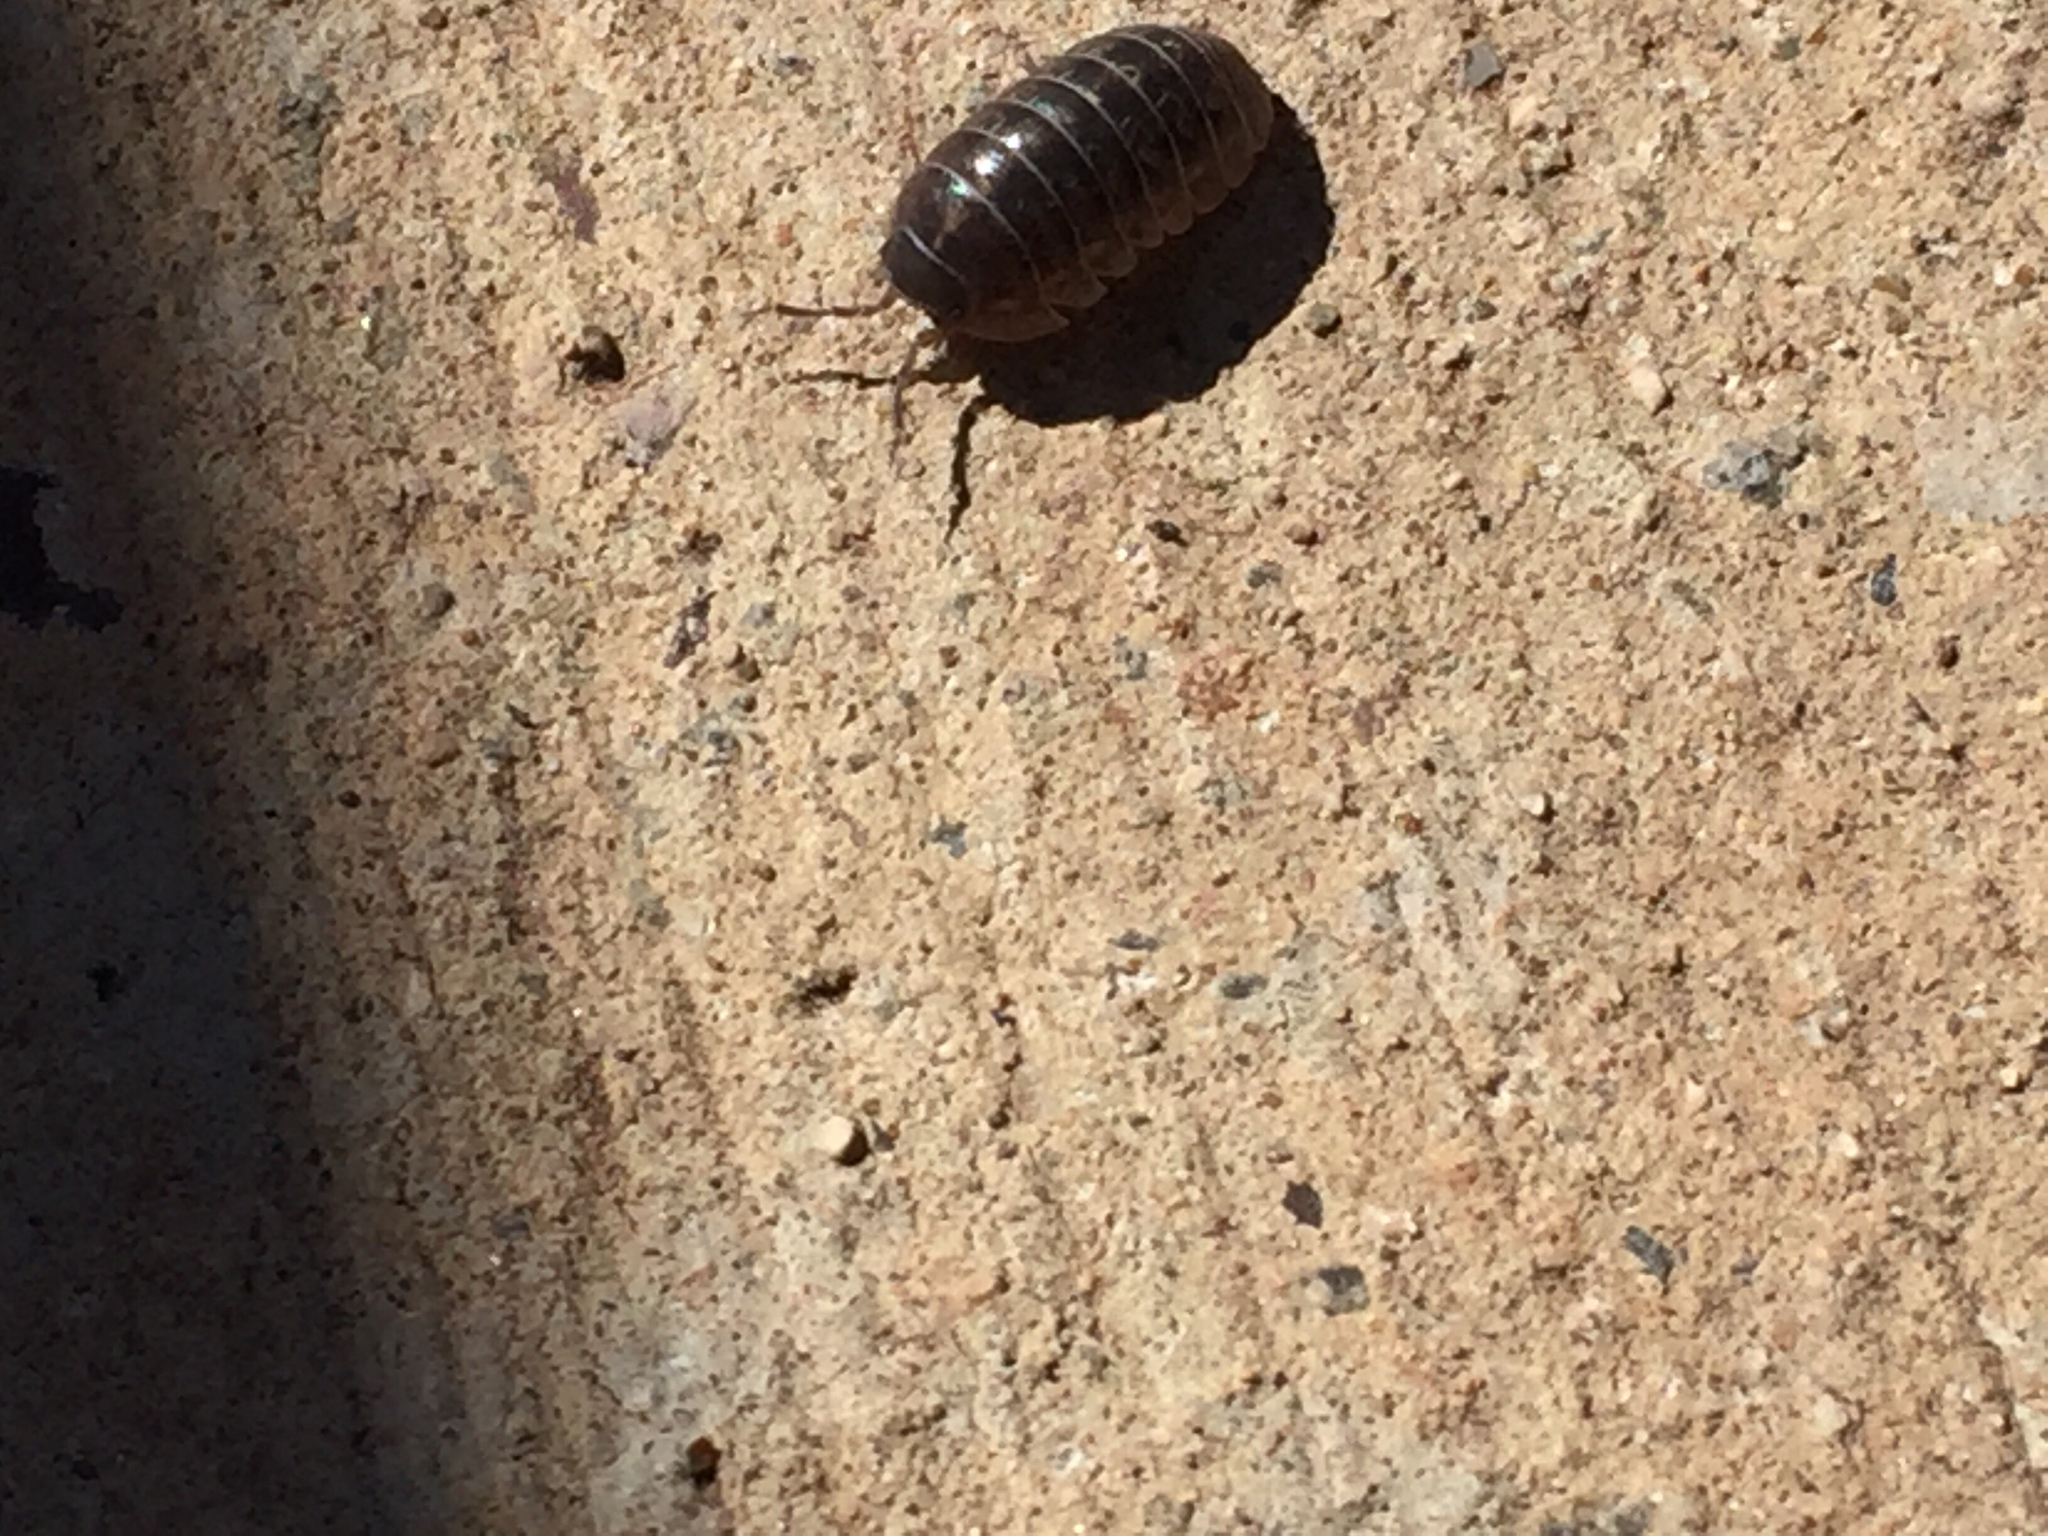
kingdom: Animalia
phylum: Arthropoda
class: Malacostraca
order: Isopoda
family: Armadillidiidae
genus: Armadillidium
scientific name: Armadillidium vulgare
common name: Common pill woodlouse
